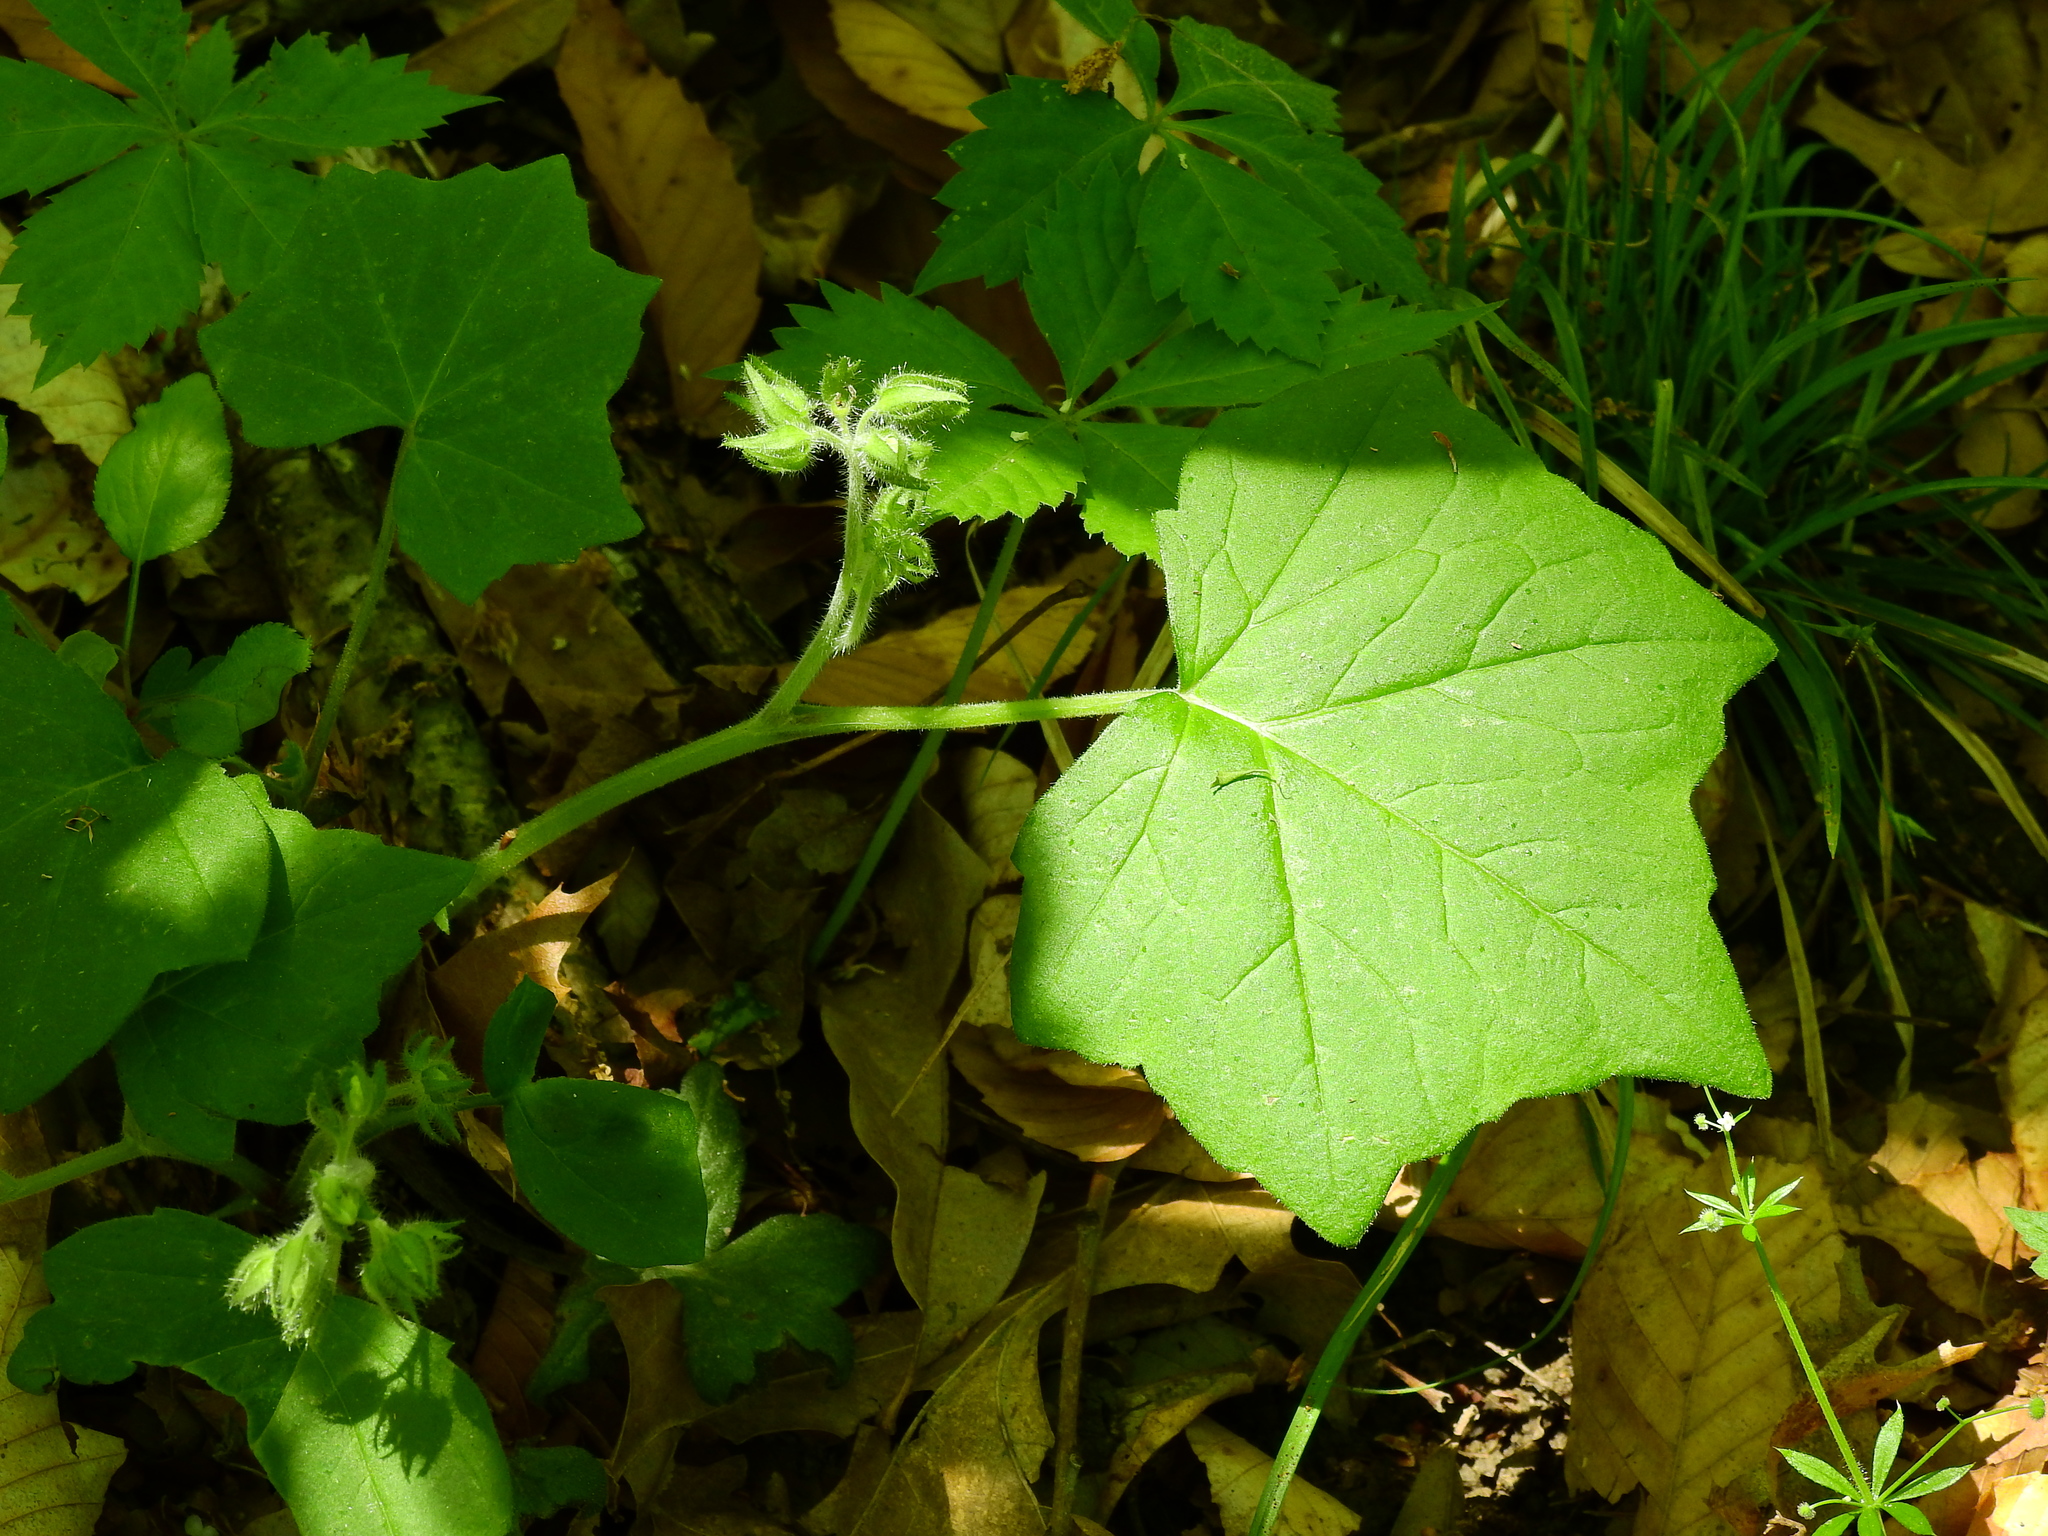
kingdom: Plantae
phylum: Tracheophyta
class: Magnoliopsida
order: Boraginales
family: Hydrophyllaceae
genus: Hydrophyllum
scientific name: Hydrophyllum appendiculatum
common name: Appendaged waterleaf
